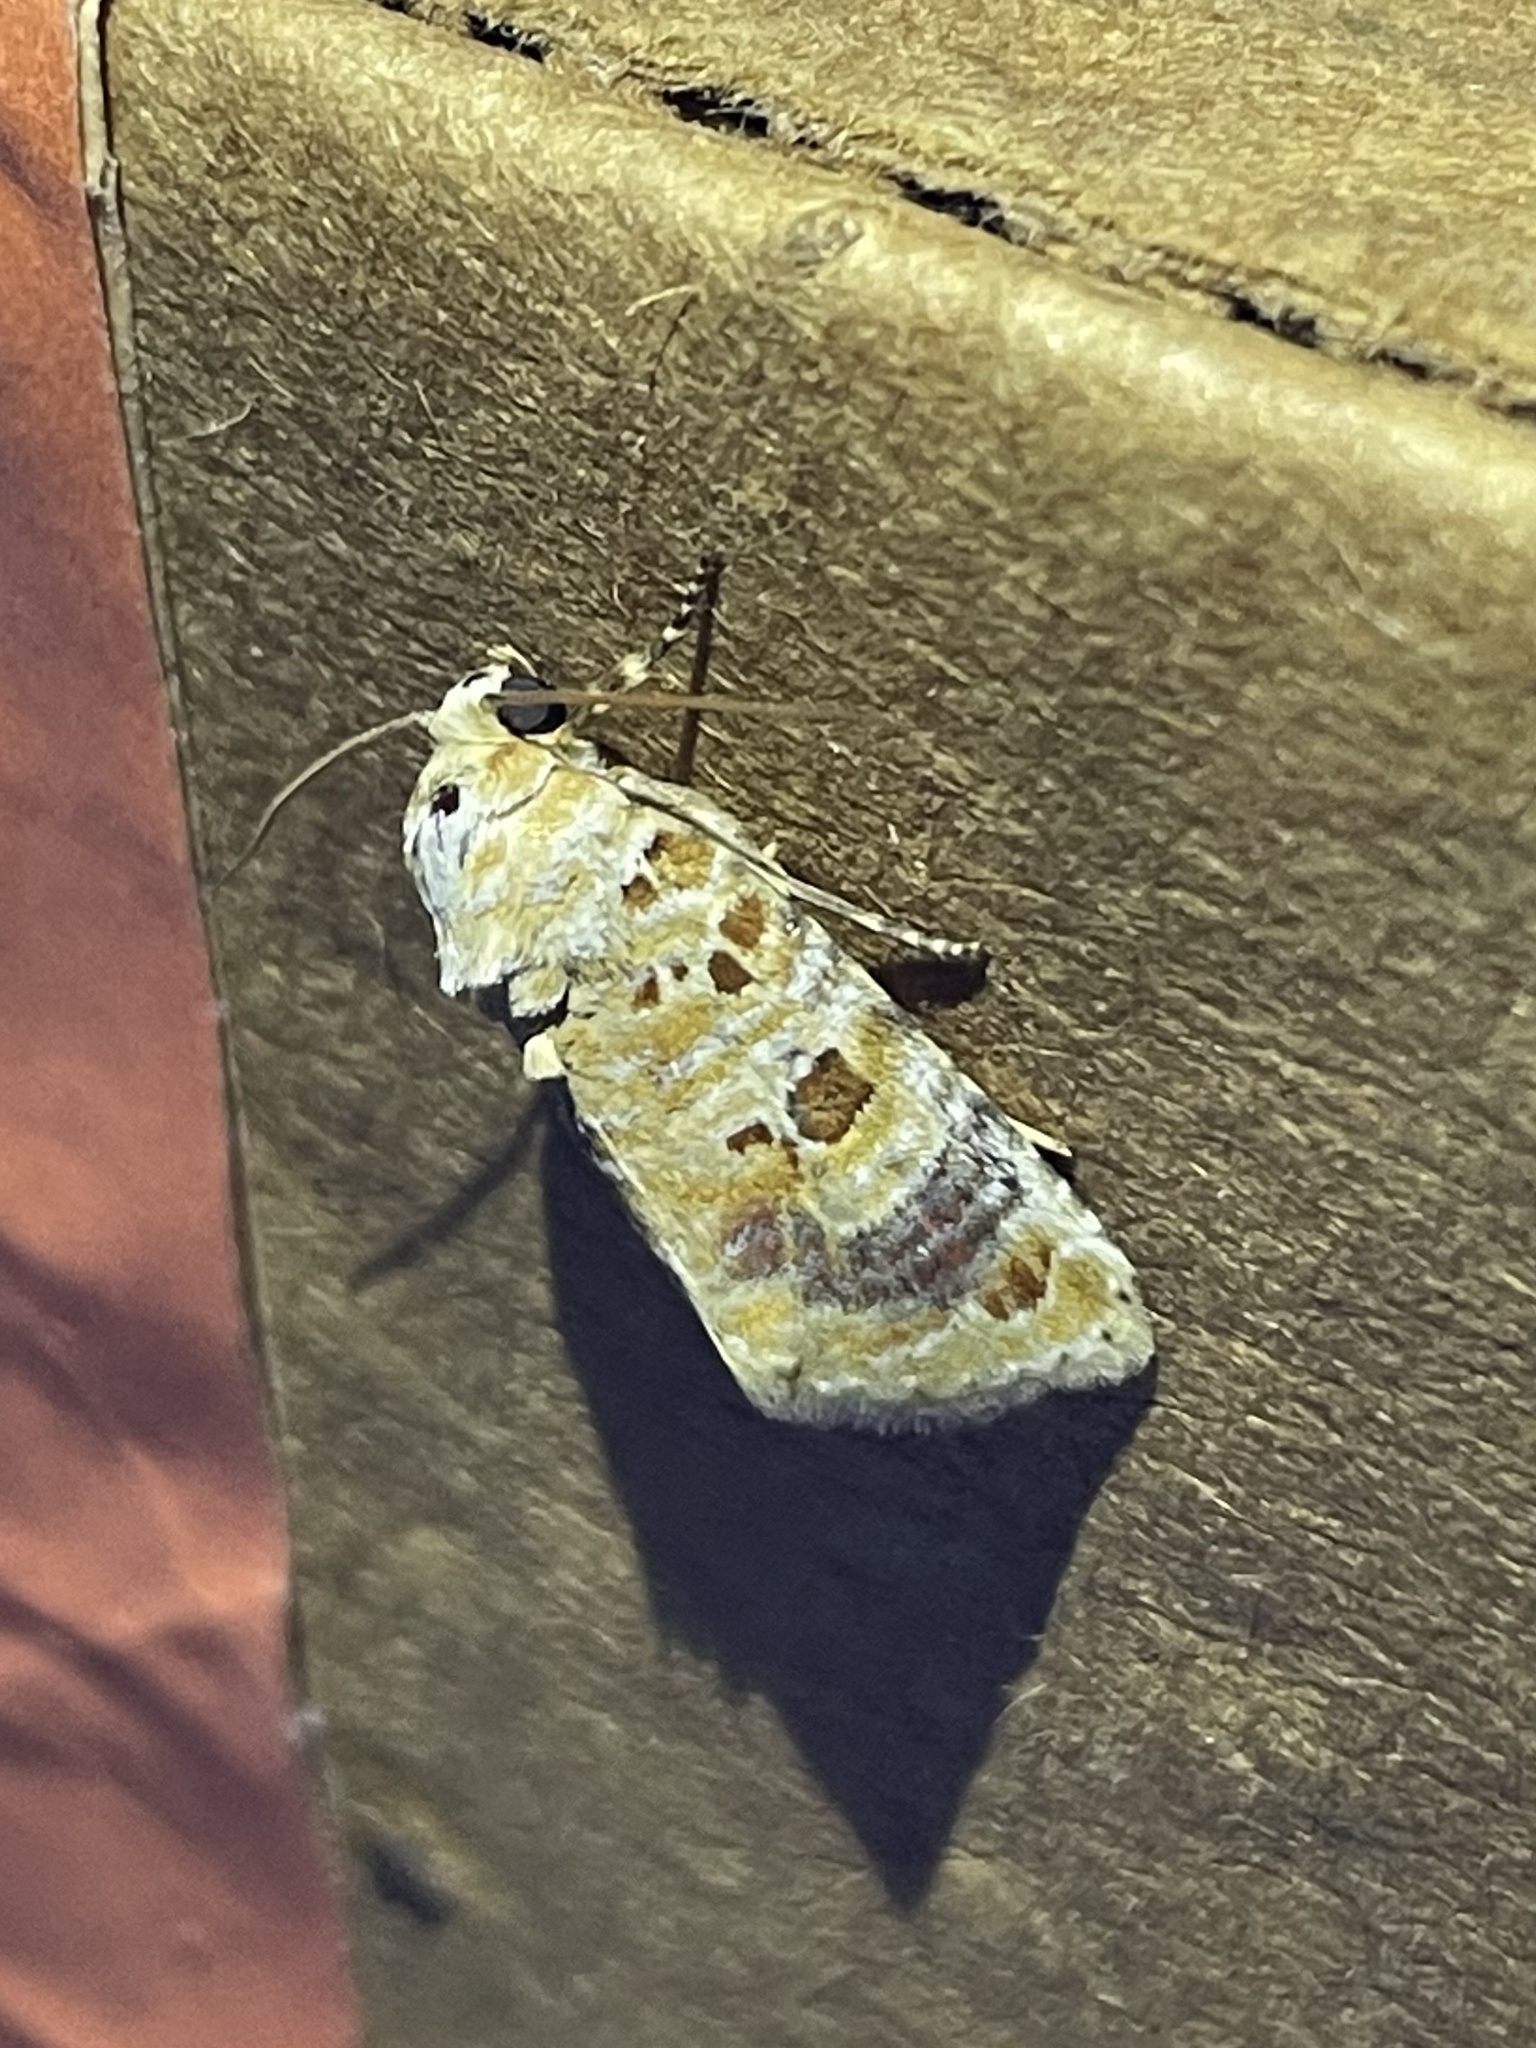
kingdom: Animalia
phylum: Arthropoda
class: Insecta
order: Lepidoptera
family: Noctuidae
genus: Diastema
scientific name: Diastema tigris
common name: Lantana moth
